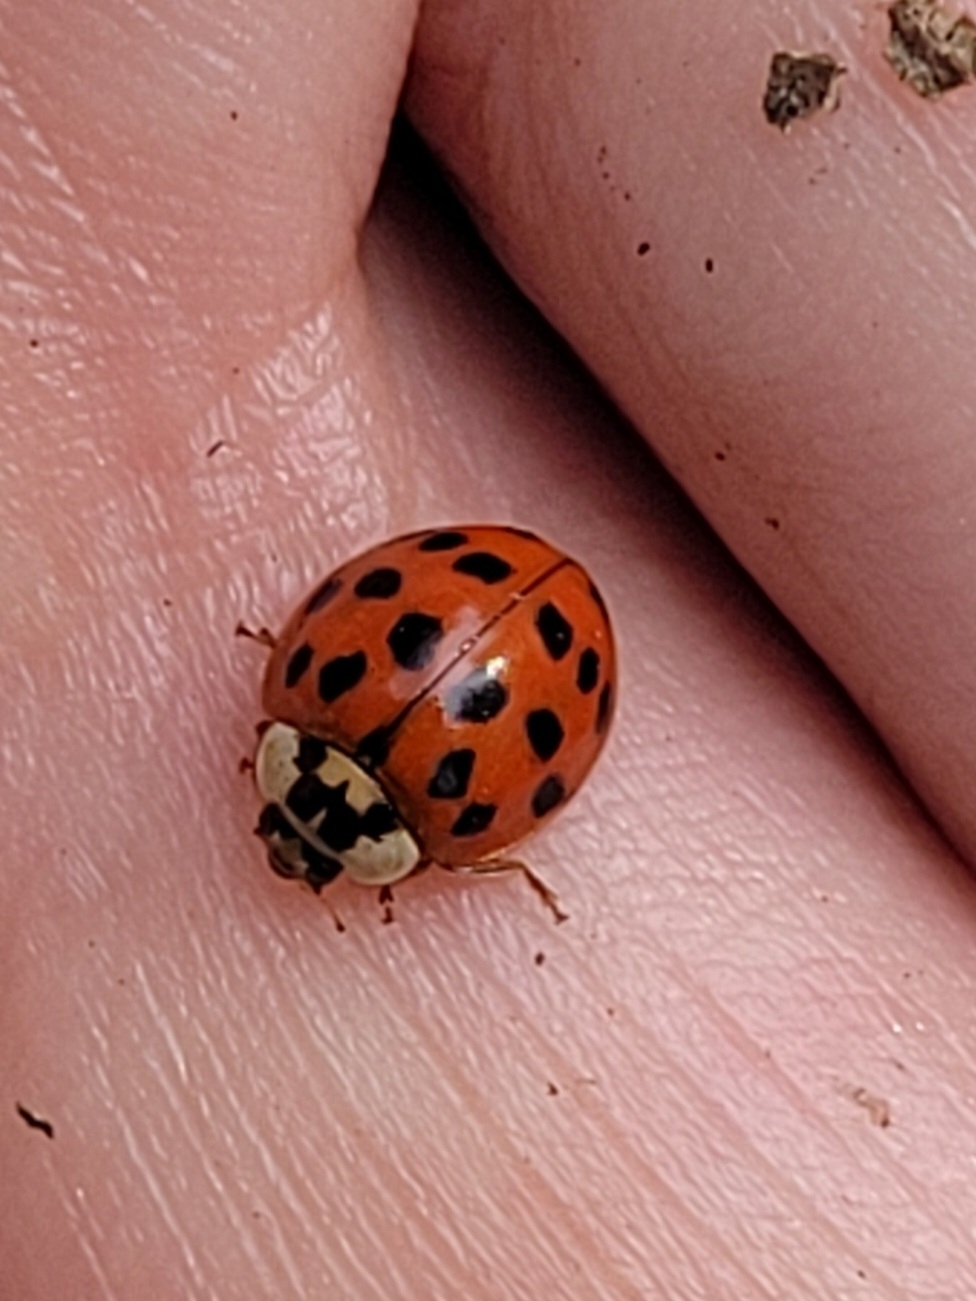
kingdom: Animalia
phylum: Arthropoda
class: Insecta
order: Coleoptera
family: Coccinellidae
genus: Harmonia
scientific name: Harmonia axyridis
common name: Harlequin ladybird
